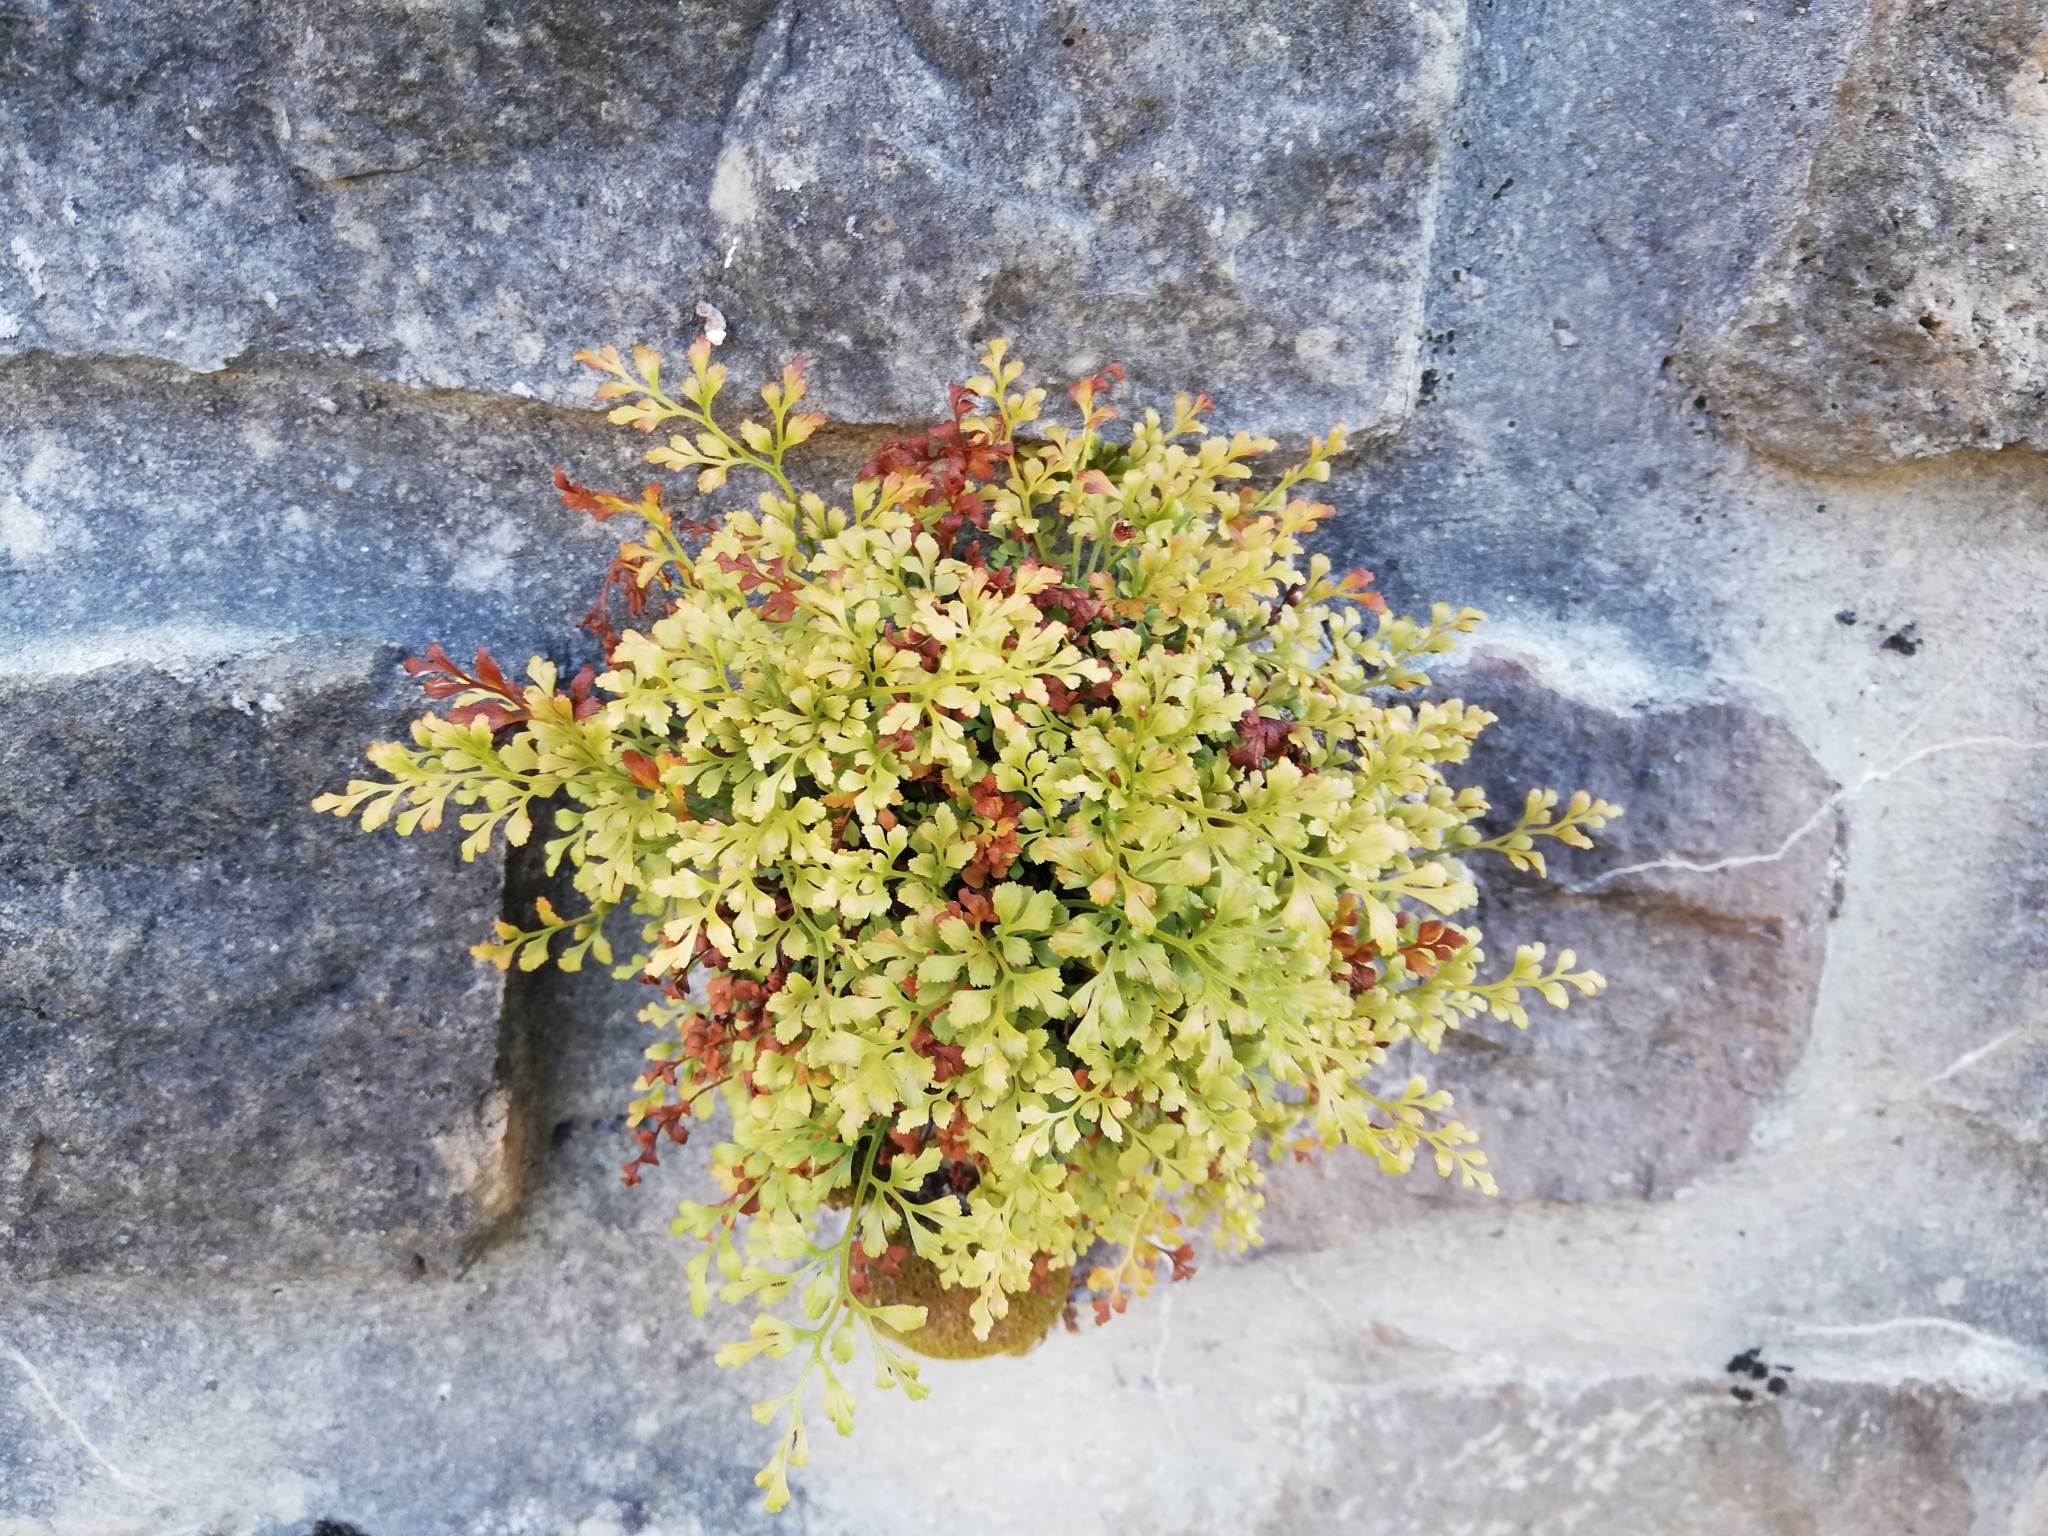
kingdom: Plantae
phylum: Tracheophyta
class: Polypodiopsida
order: Polypodiales
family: Aspleniaceae
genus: Asplenium
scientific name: Asplenium ruta-muraria
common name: Wall-rue
